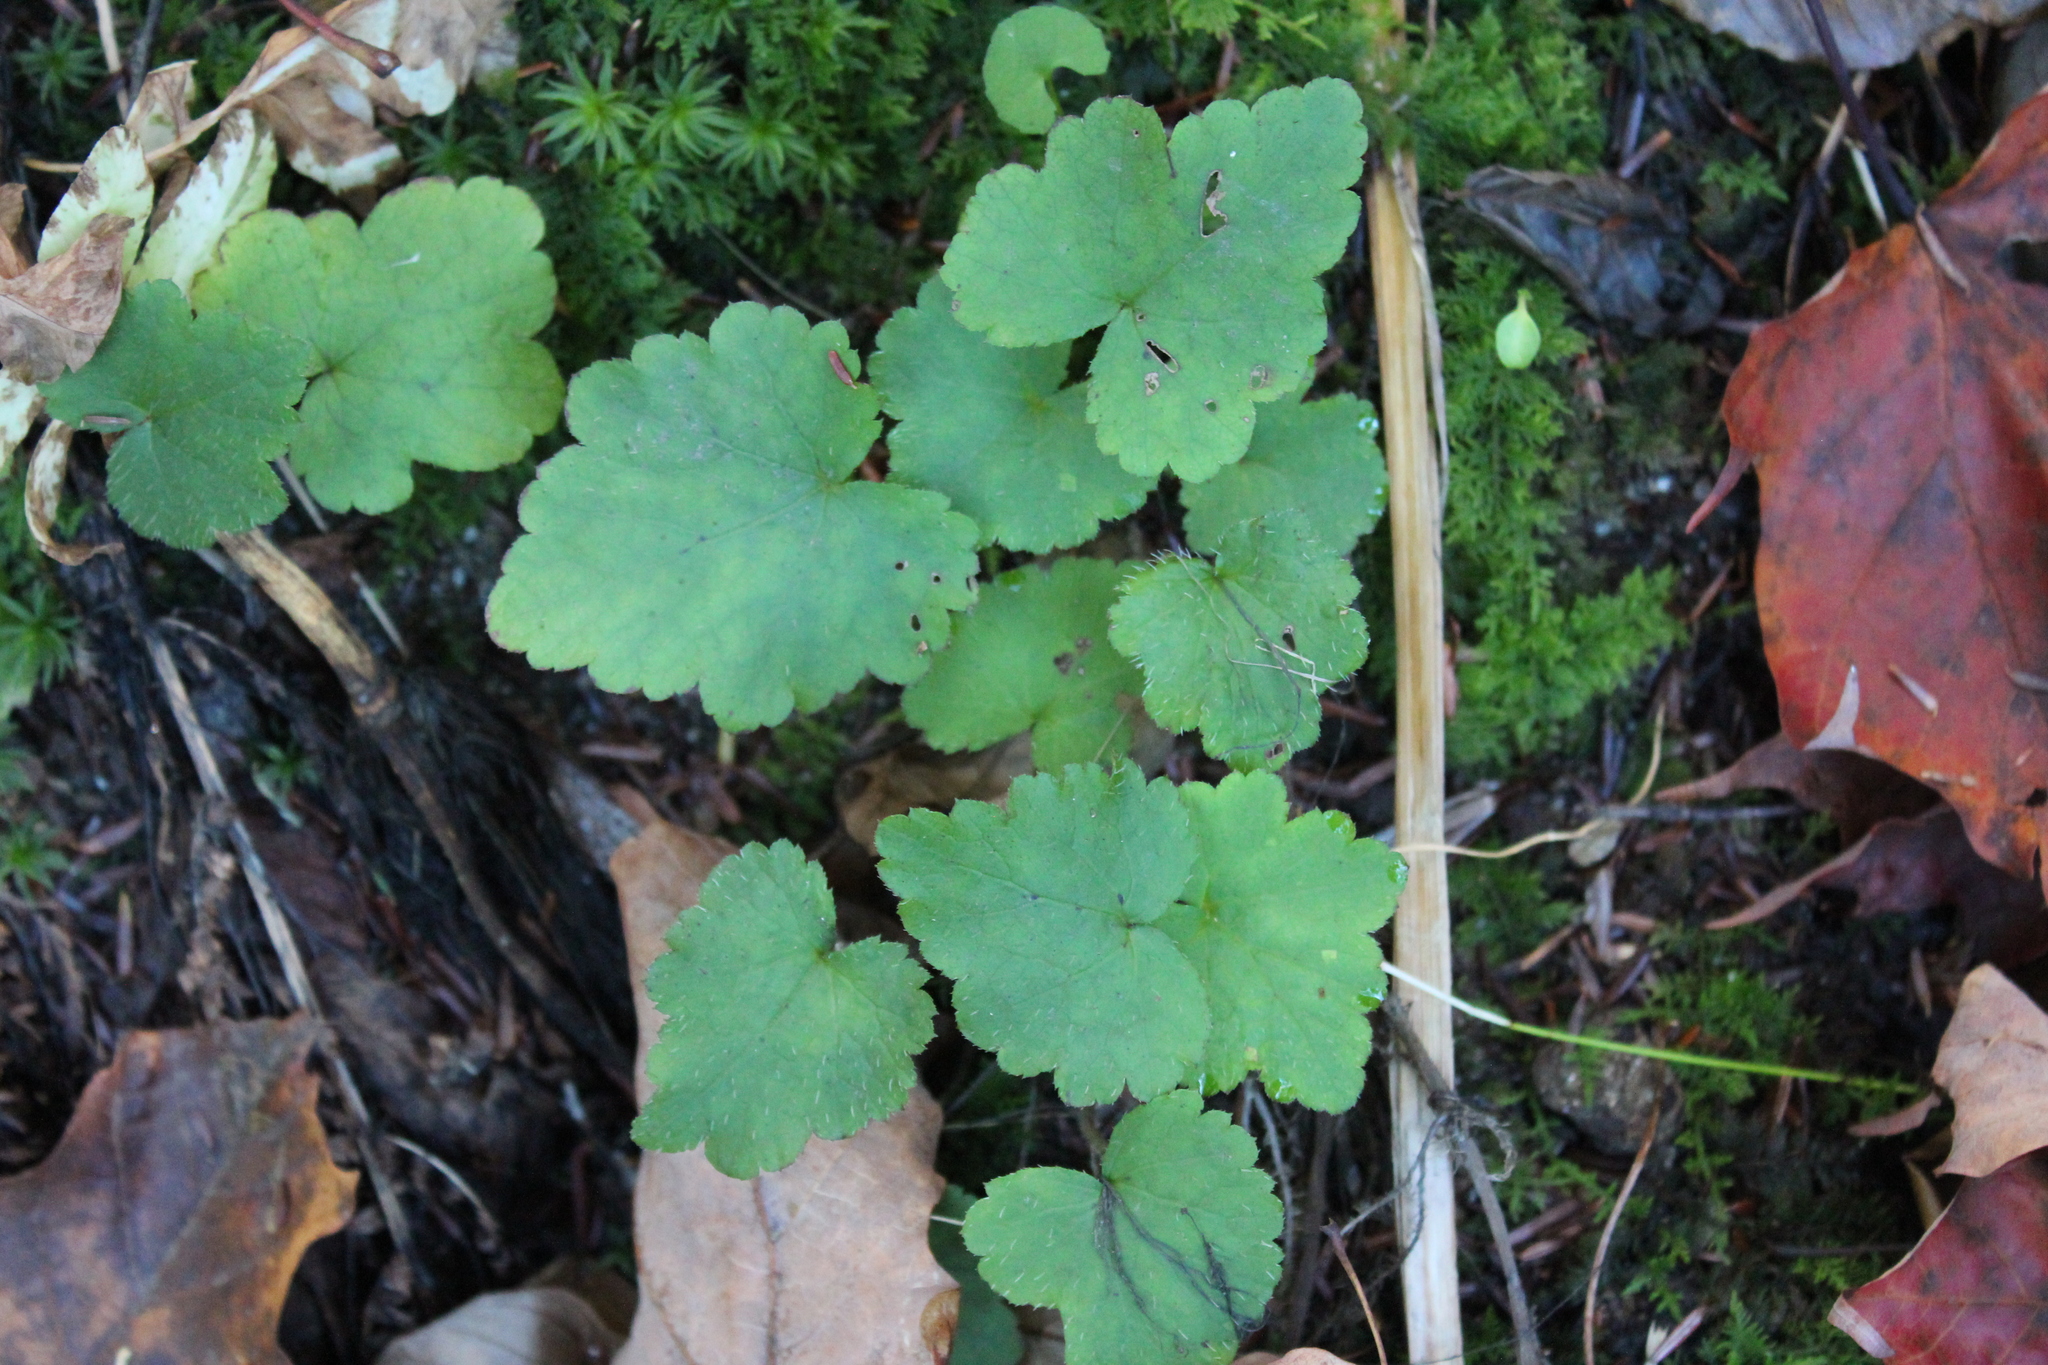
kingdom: Plantae
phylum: Tracheophyta
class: Magnoliopsida
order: Saxifragales
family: Saxifragaceae
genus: Tiarella
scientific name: Tiarella stolonifera
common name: Stoloniferous foamflower
